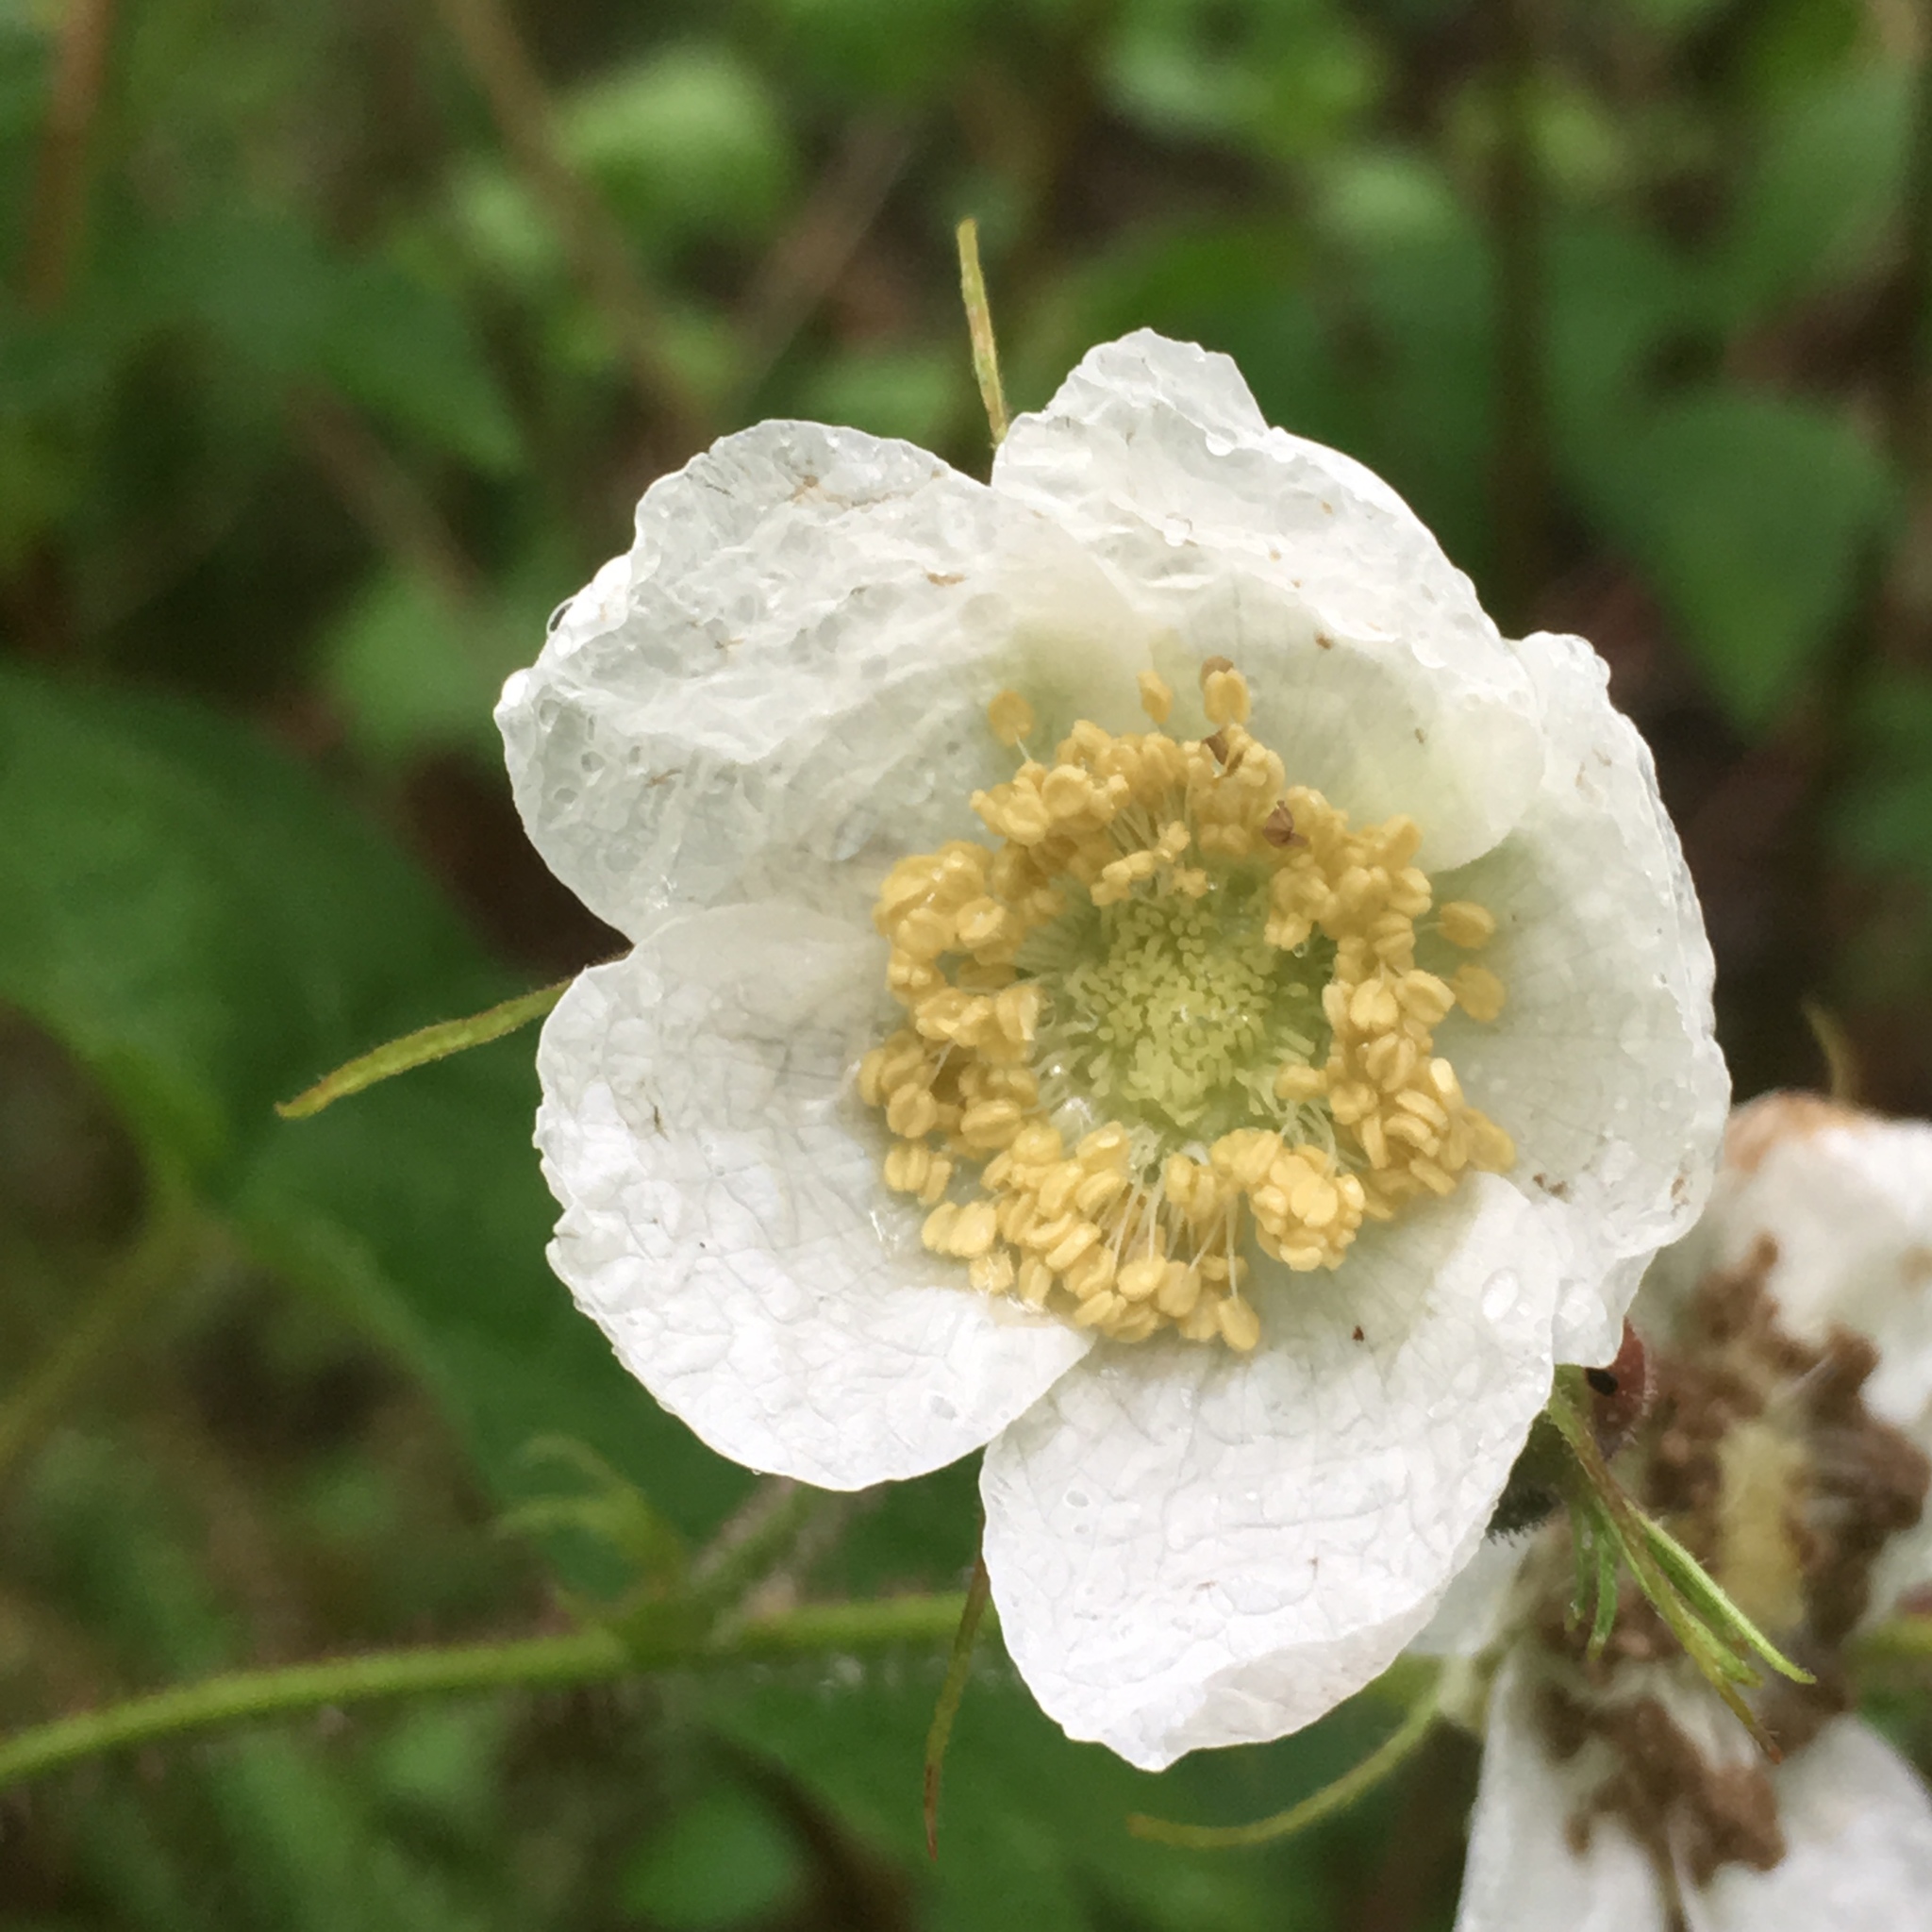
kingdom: Plantae
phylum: Tracheophyta
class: Magnoliopsida
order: Rosales
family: Rosaceae
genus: Rubus
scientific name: Rubus parviflorus
